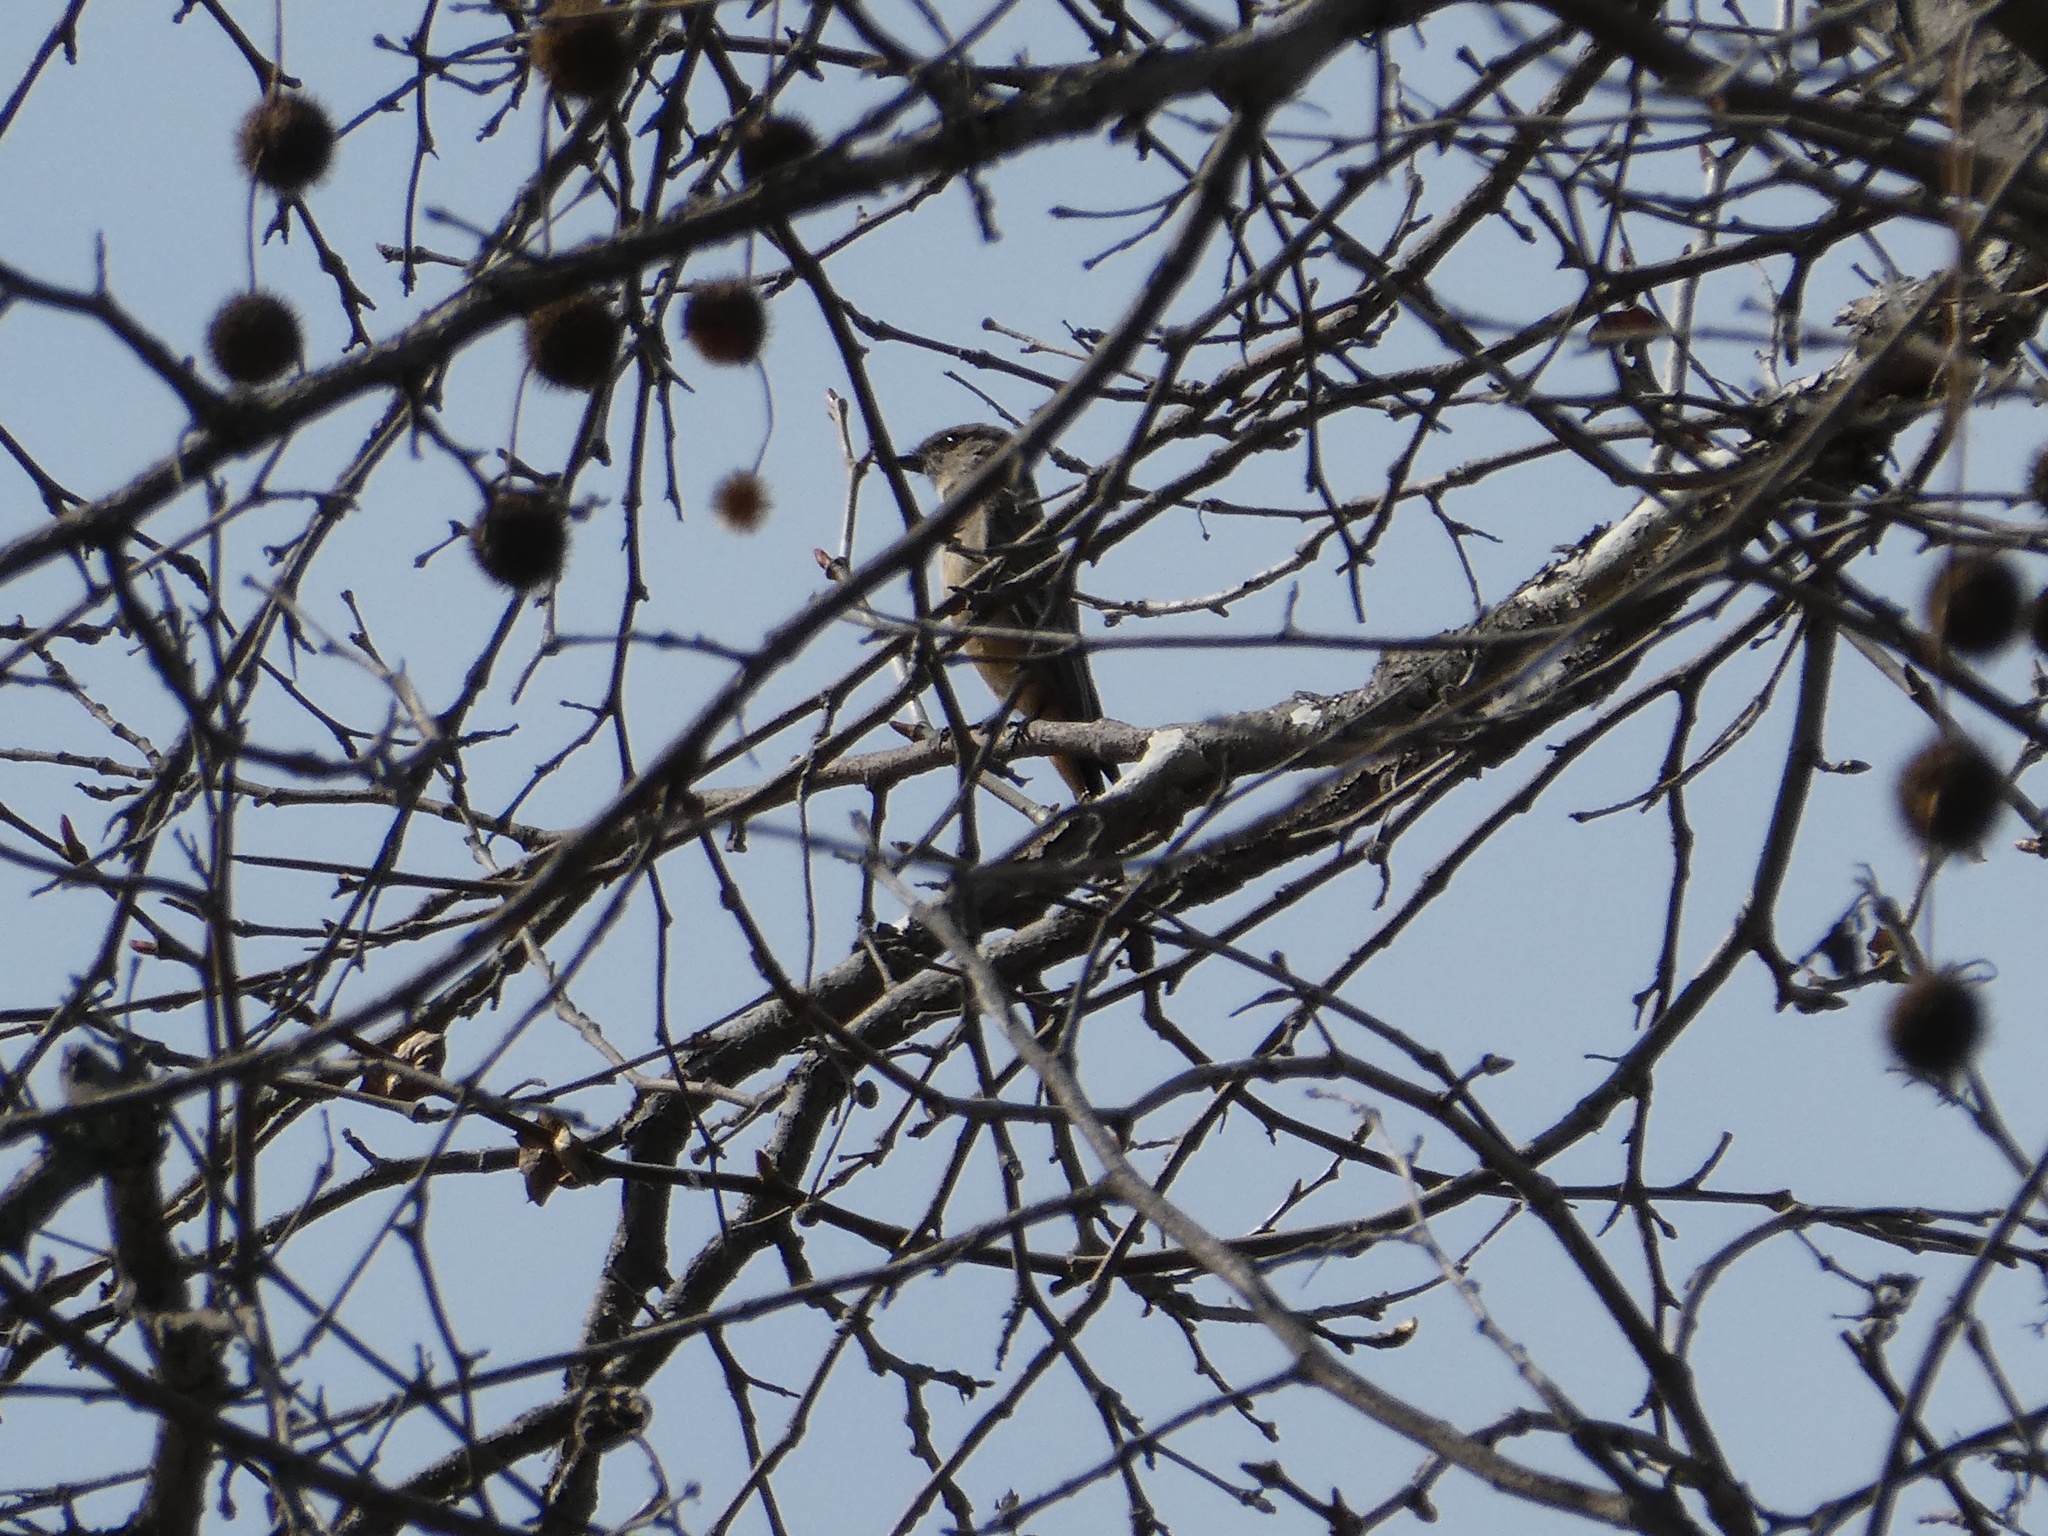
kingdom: Animalia
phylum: Chordata
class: Aves
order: Passeriformes
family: Tyrannidae
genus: Sayornis
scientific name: Sayornis saya
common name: Say's phoebe
